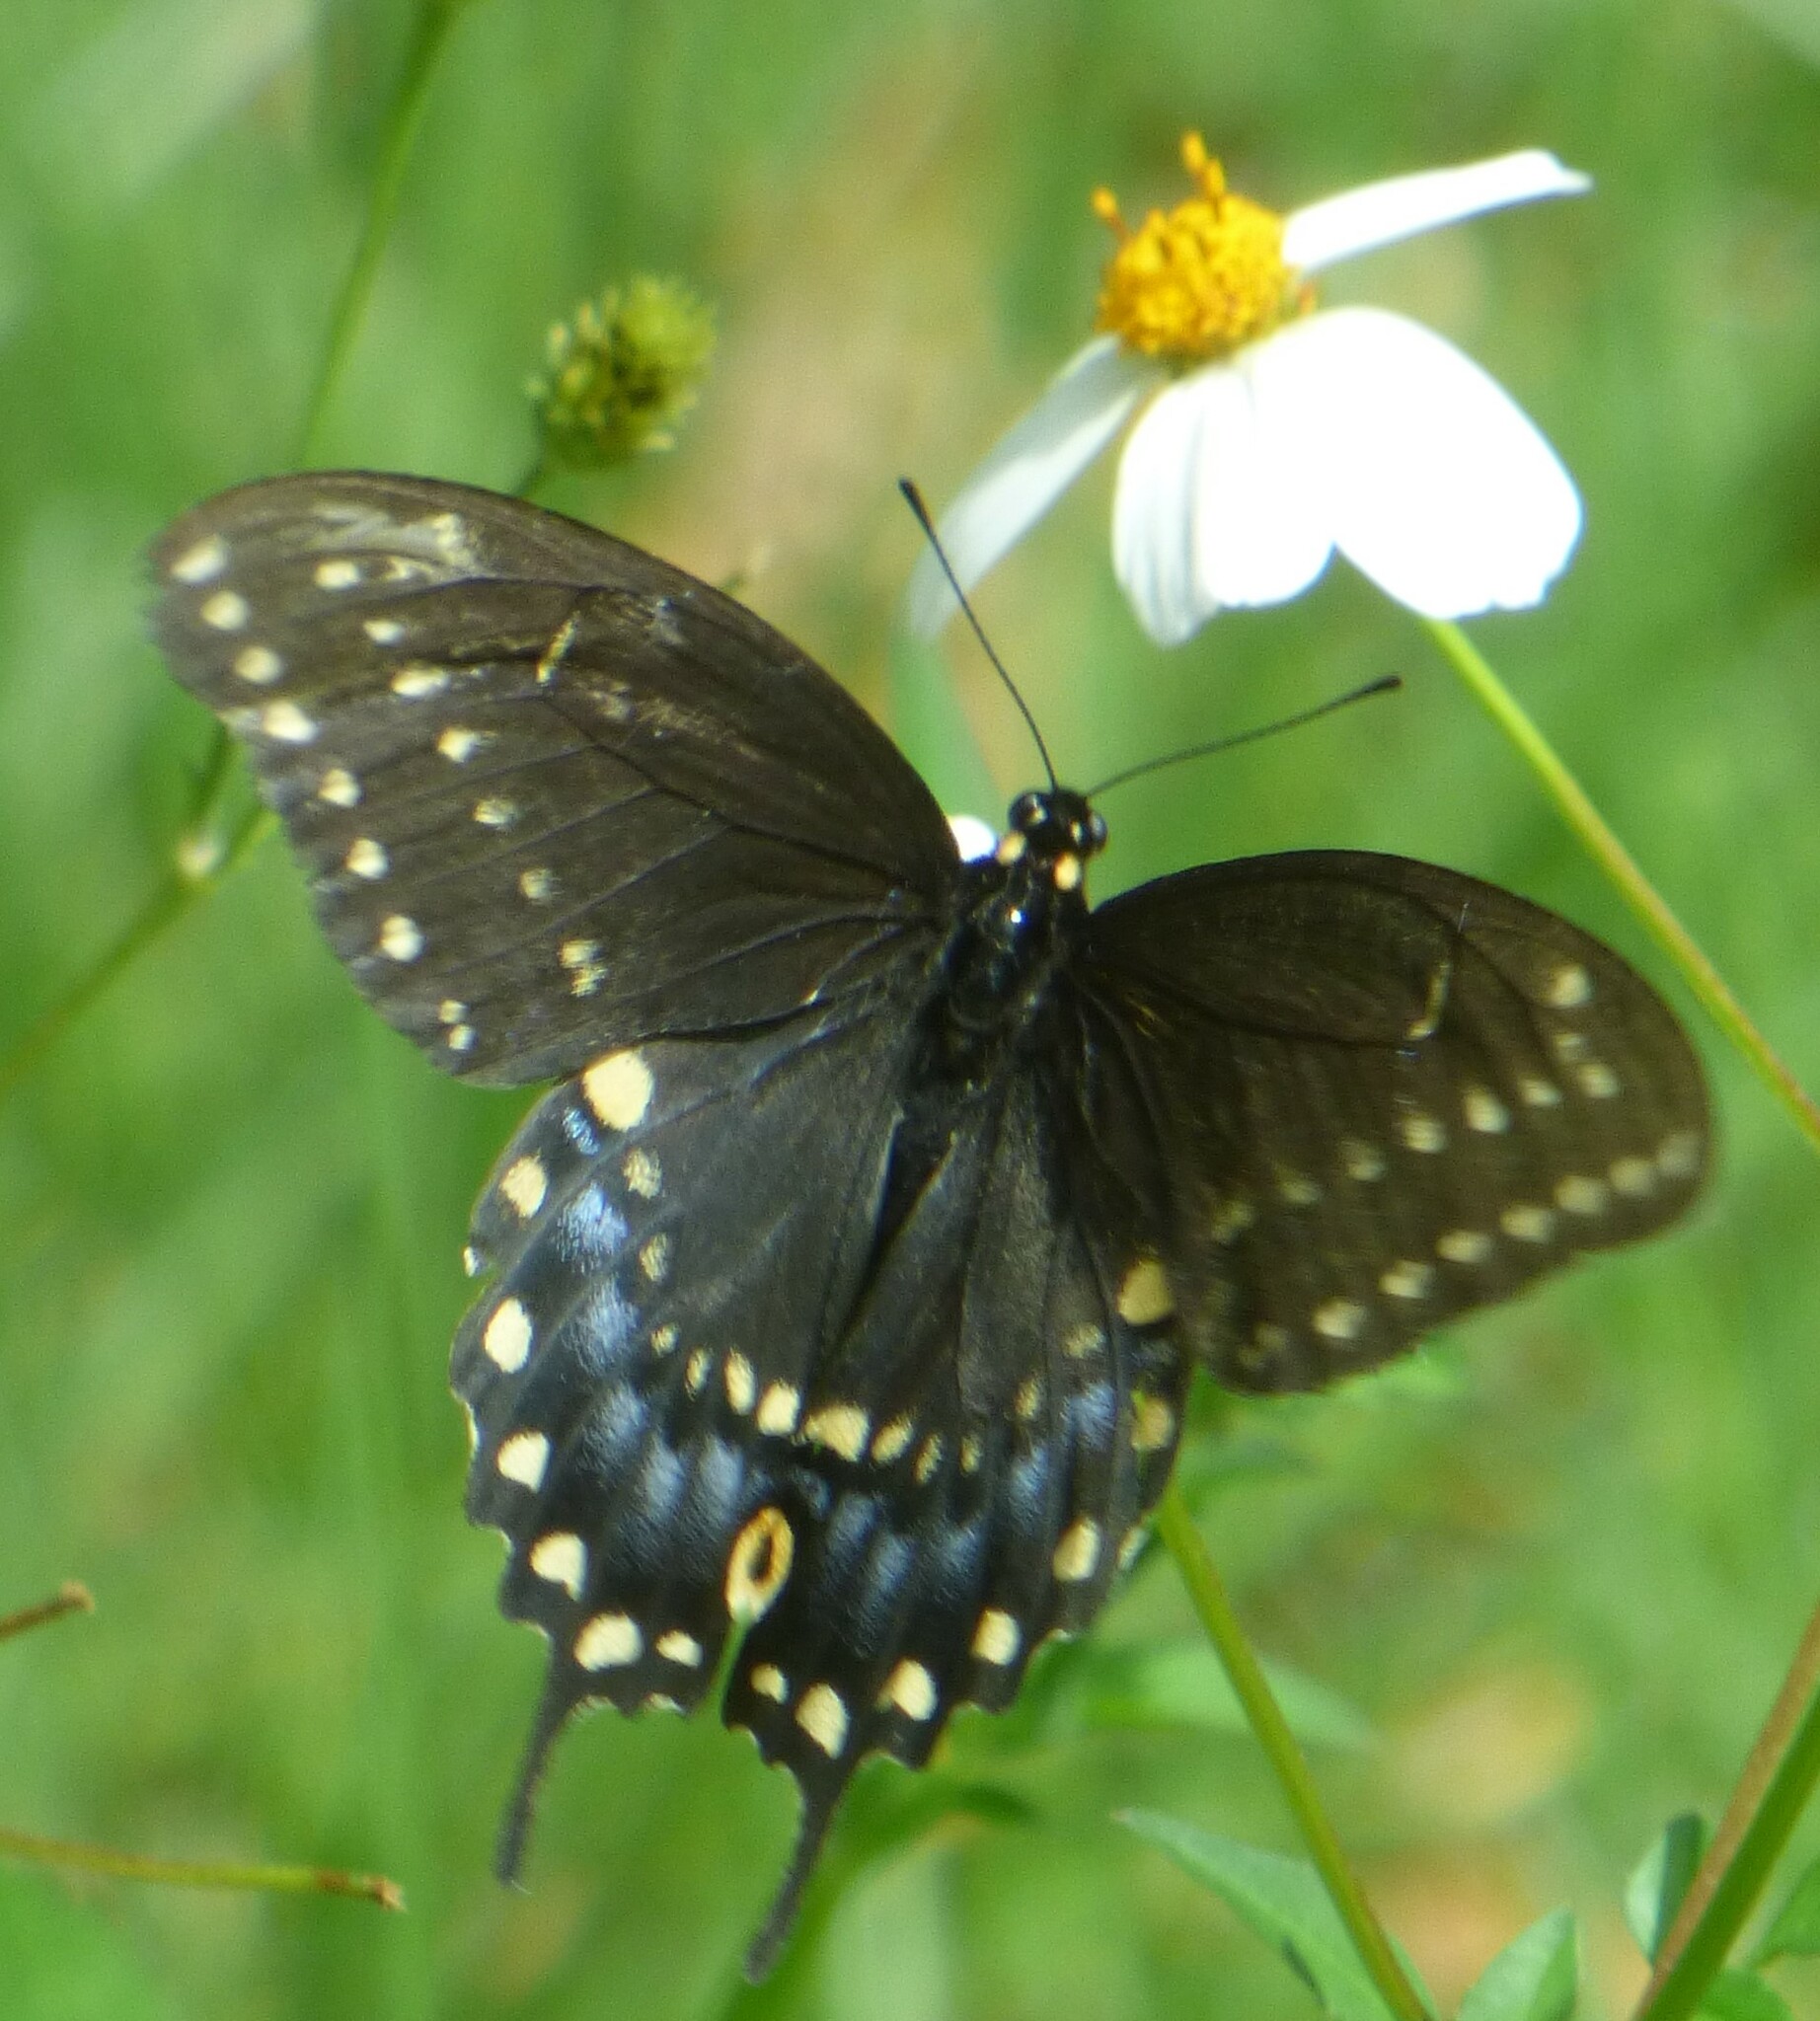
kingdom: Animalia
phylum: Arthropoda
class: Insecta
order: Lepidoptera
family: Papilionidae
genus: Papilio
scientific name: Papilio polyxenes
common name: Black swallowtail
